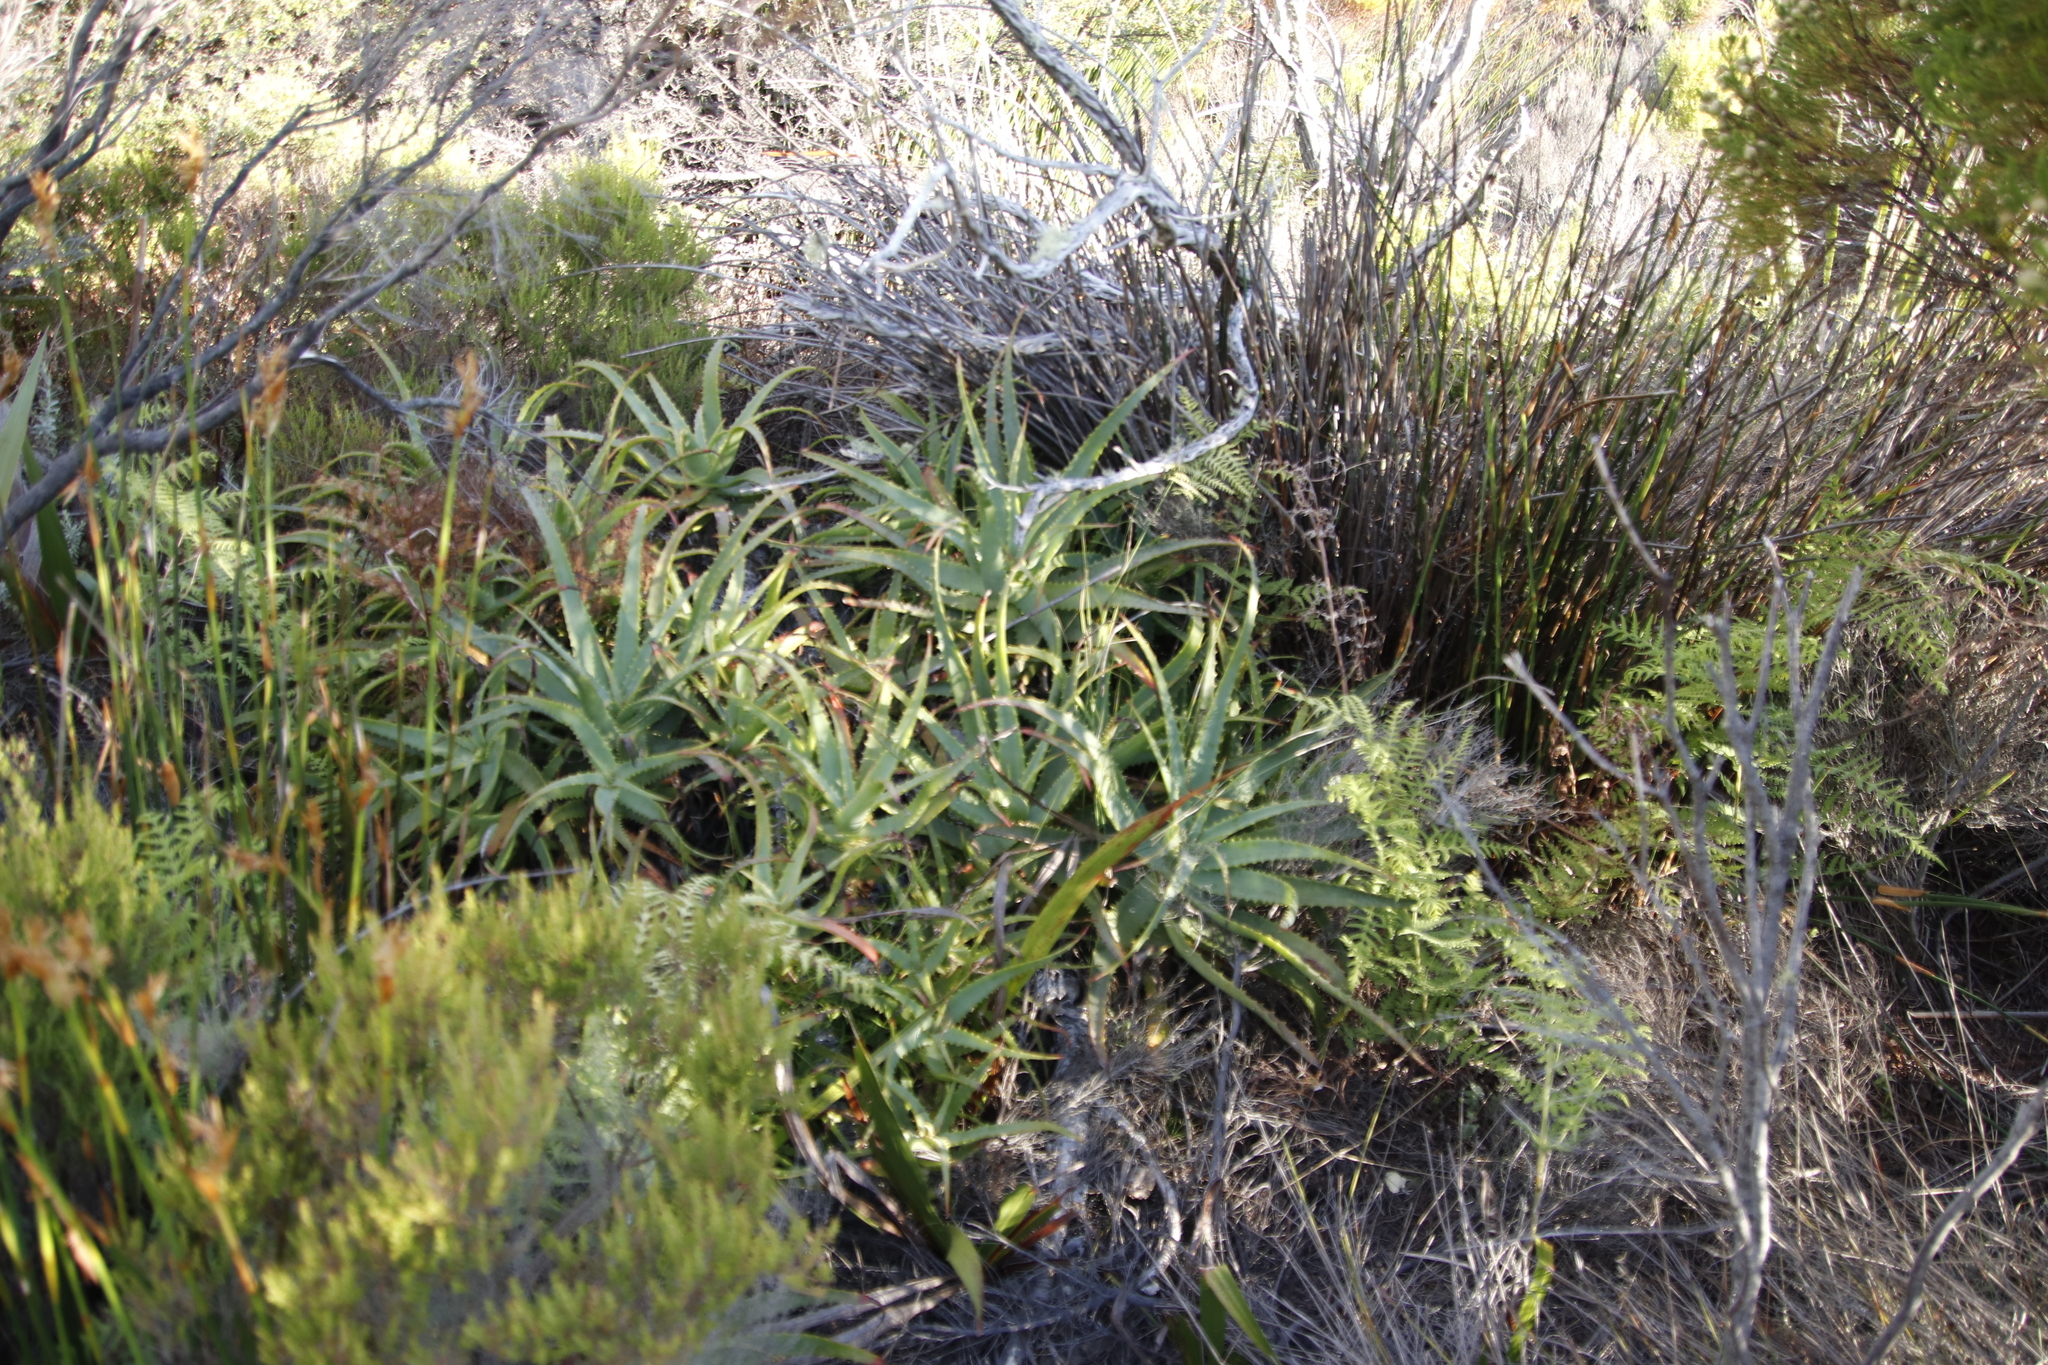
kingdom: Plantae
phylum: Tracheophyta
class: Liliopsida
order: Asparagales
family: Asphodelaceae
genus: Aloe
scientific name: Aloe arborescens
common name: Candelabra aloe
